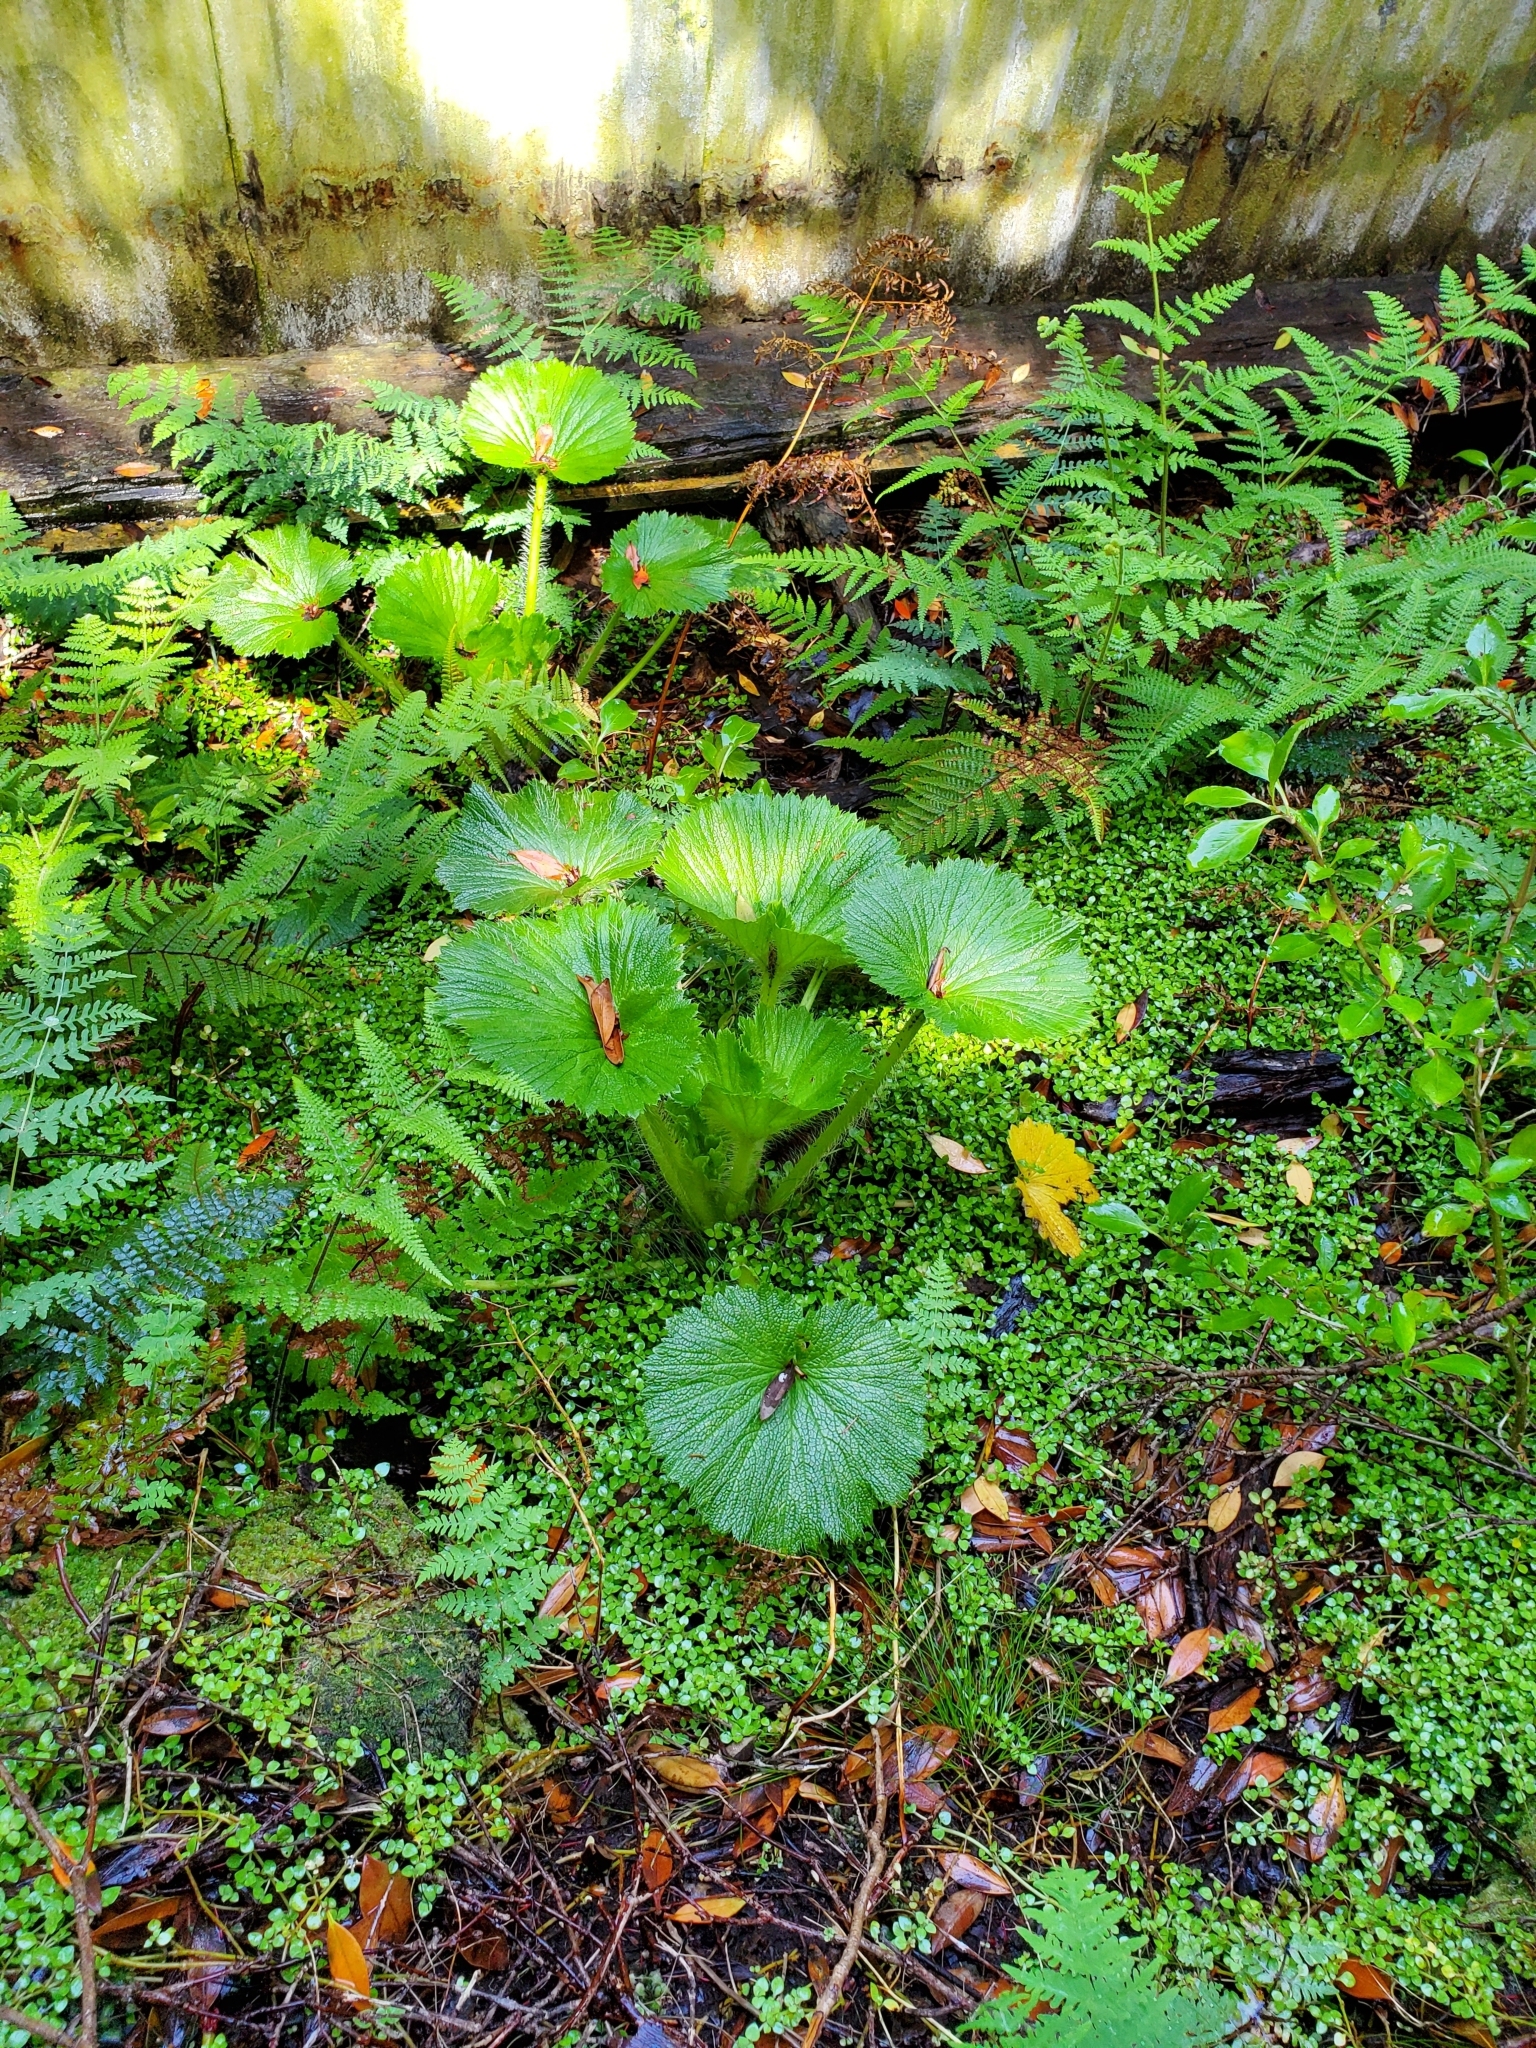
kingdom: Plantae
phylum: Tracheophyta
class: Magnoliopsida
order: Apiales
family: Apiaceae
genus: Azorella
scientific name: Azorella polaris
